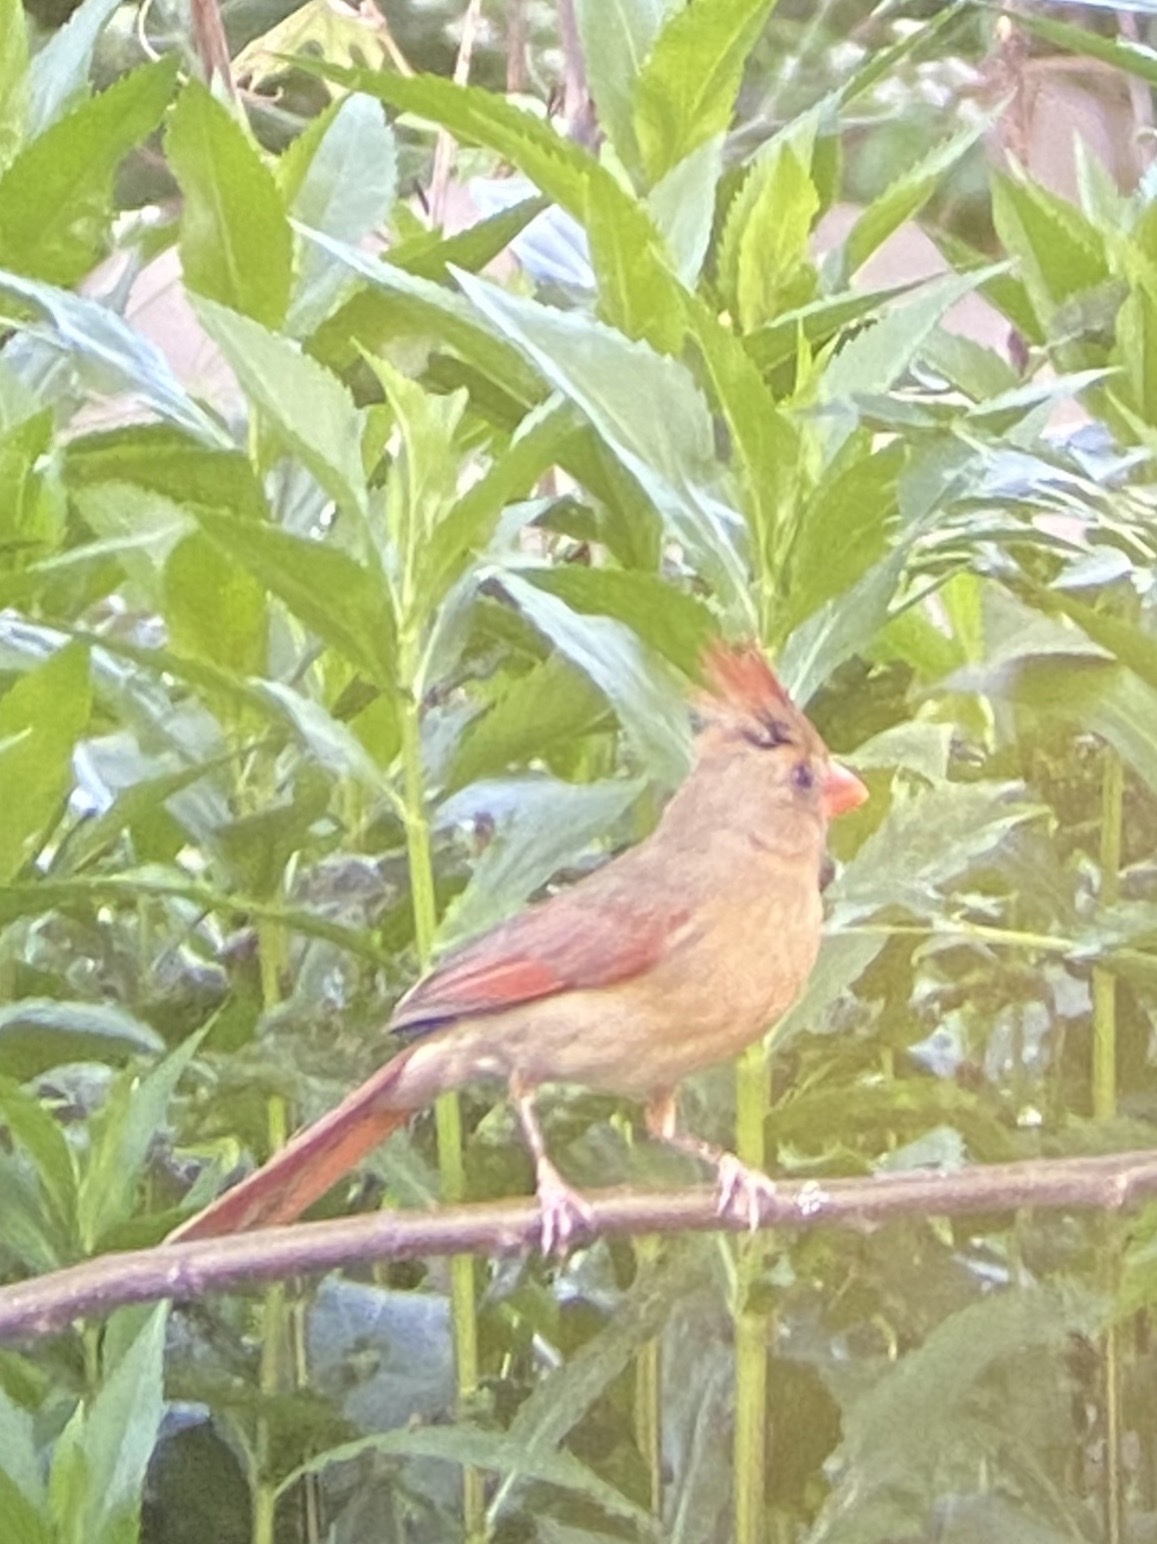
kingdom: Animalia
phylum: Chordata
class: Aves
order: Passeriformes
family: Cardinalidae
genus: Cardinalis
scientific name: Cardinalis cardinalis
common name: Northern cardinal
